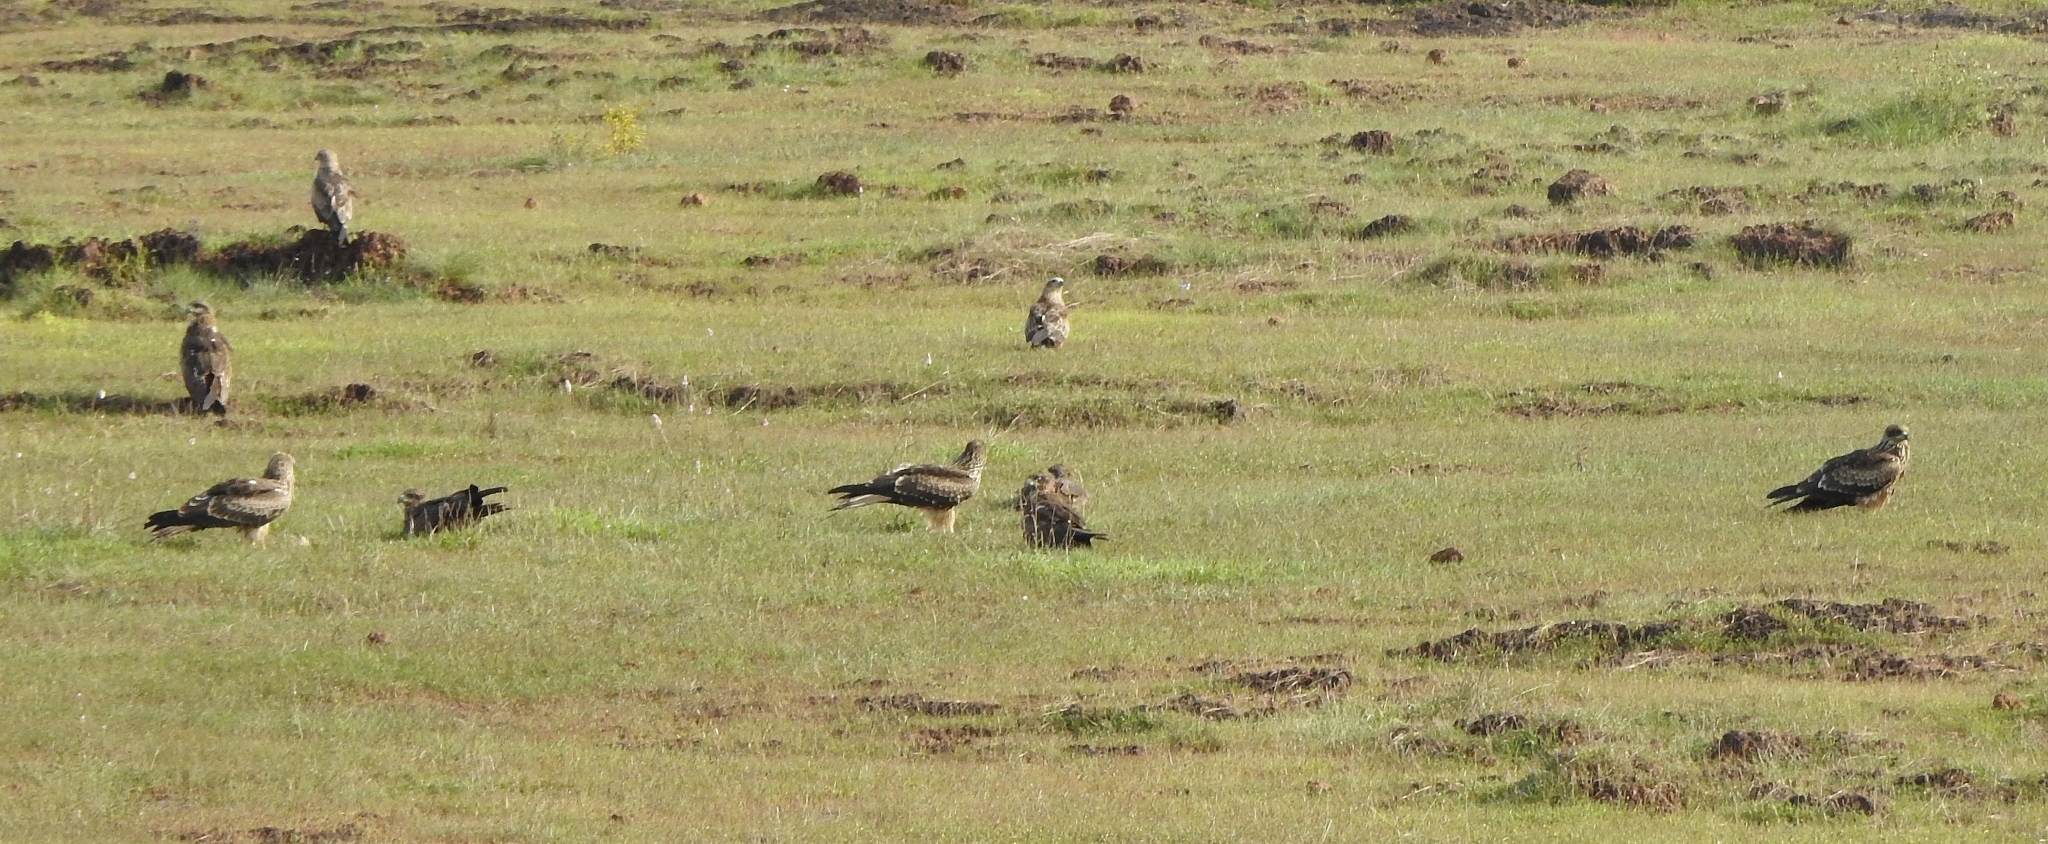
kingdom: Animalia
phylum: Chordata
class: Aves
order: Accipitriformes
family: Accipitridae
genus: Milvus
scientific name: Milvus migrans
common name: Black kite
